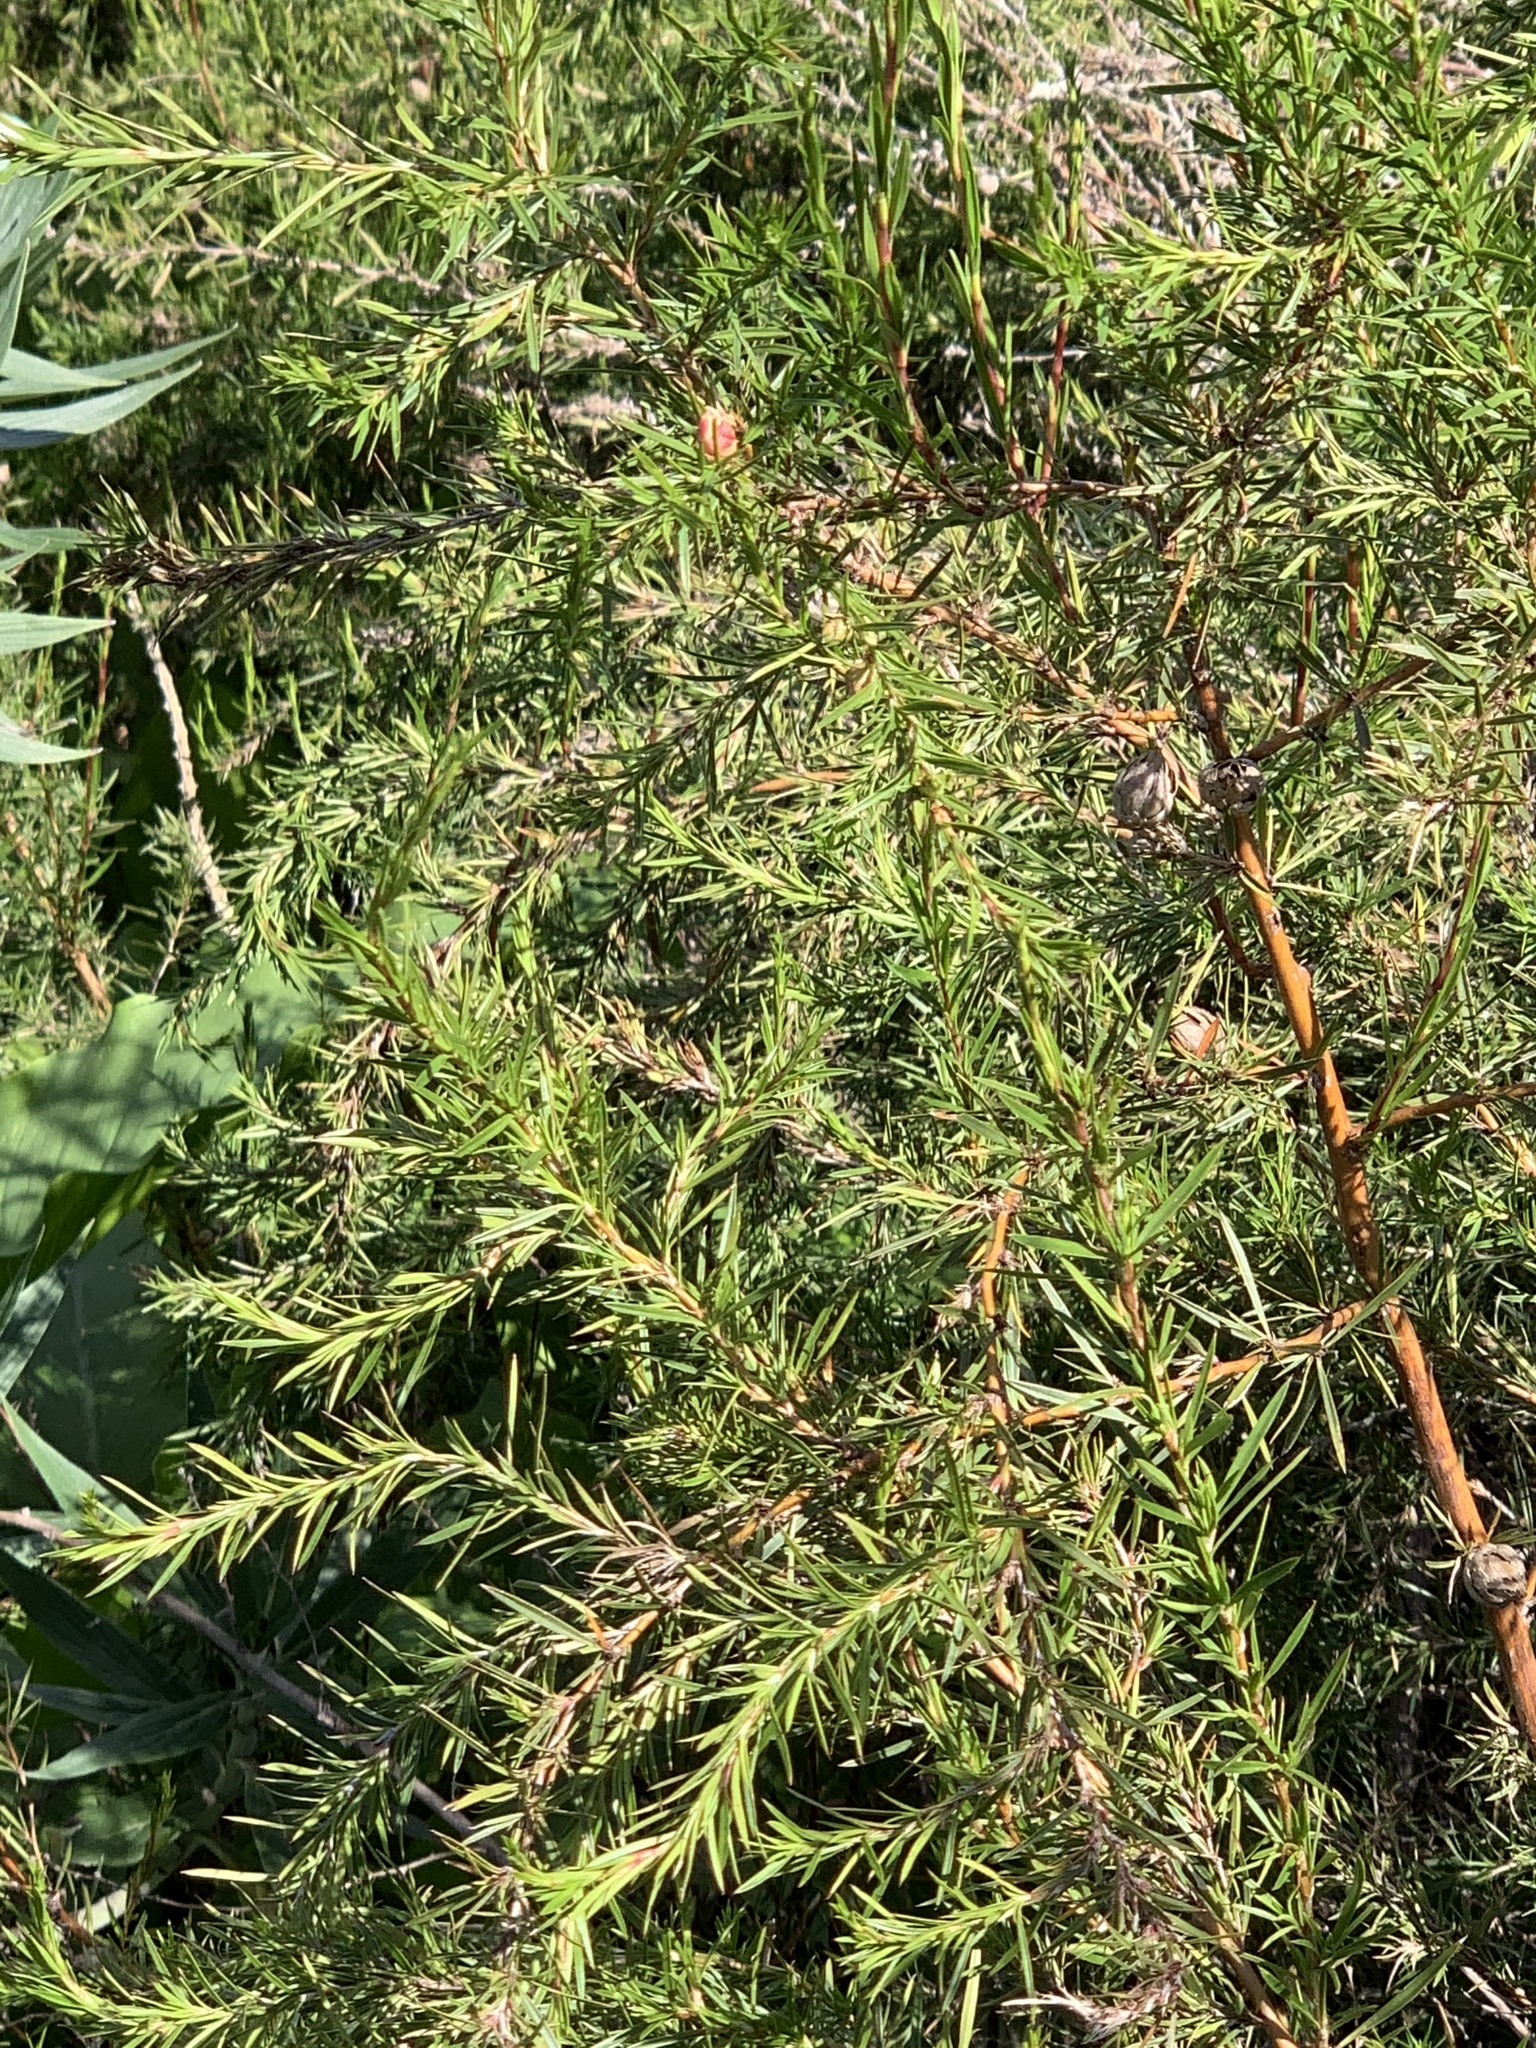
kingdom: Plantae
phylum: Tracheophyta
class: Magnoliopsida
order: Rosales
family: Rosaceae
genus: Cliffortia
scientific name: Cliffortia strobilifera
